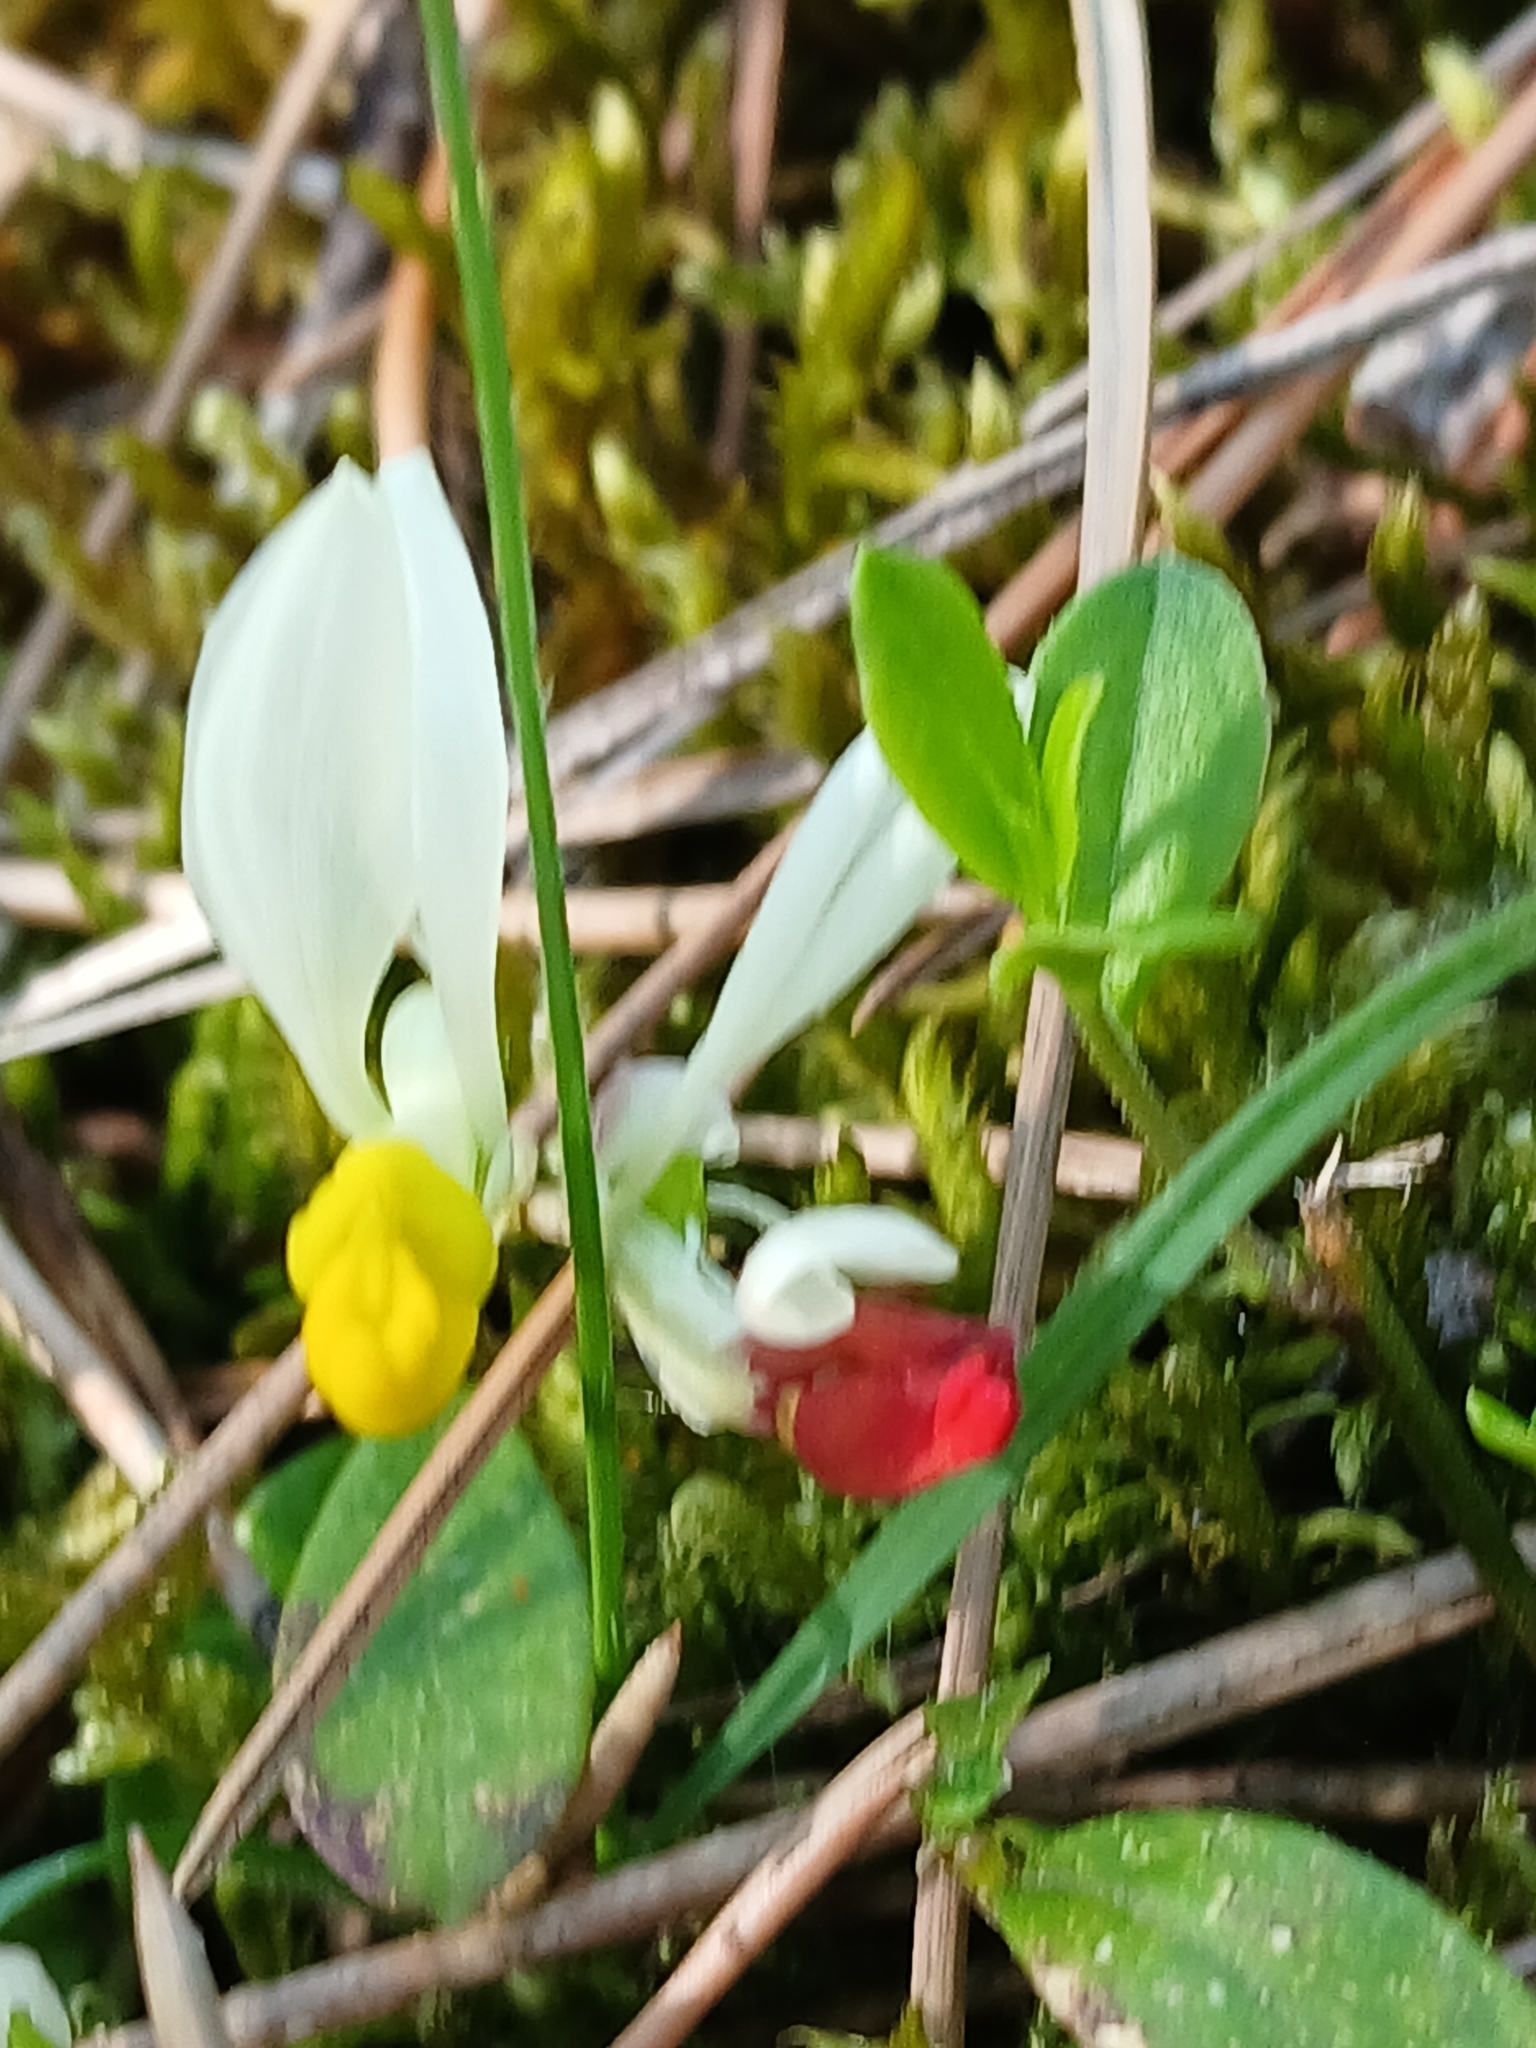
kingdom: Plantae
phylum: Tracheophyta
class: Magnoliopsida
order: Fabales
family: Polygalaceae
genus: Polygaloides
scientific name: Polygaloides chamaebuxus
